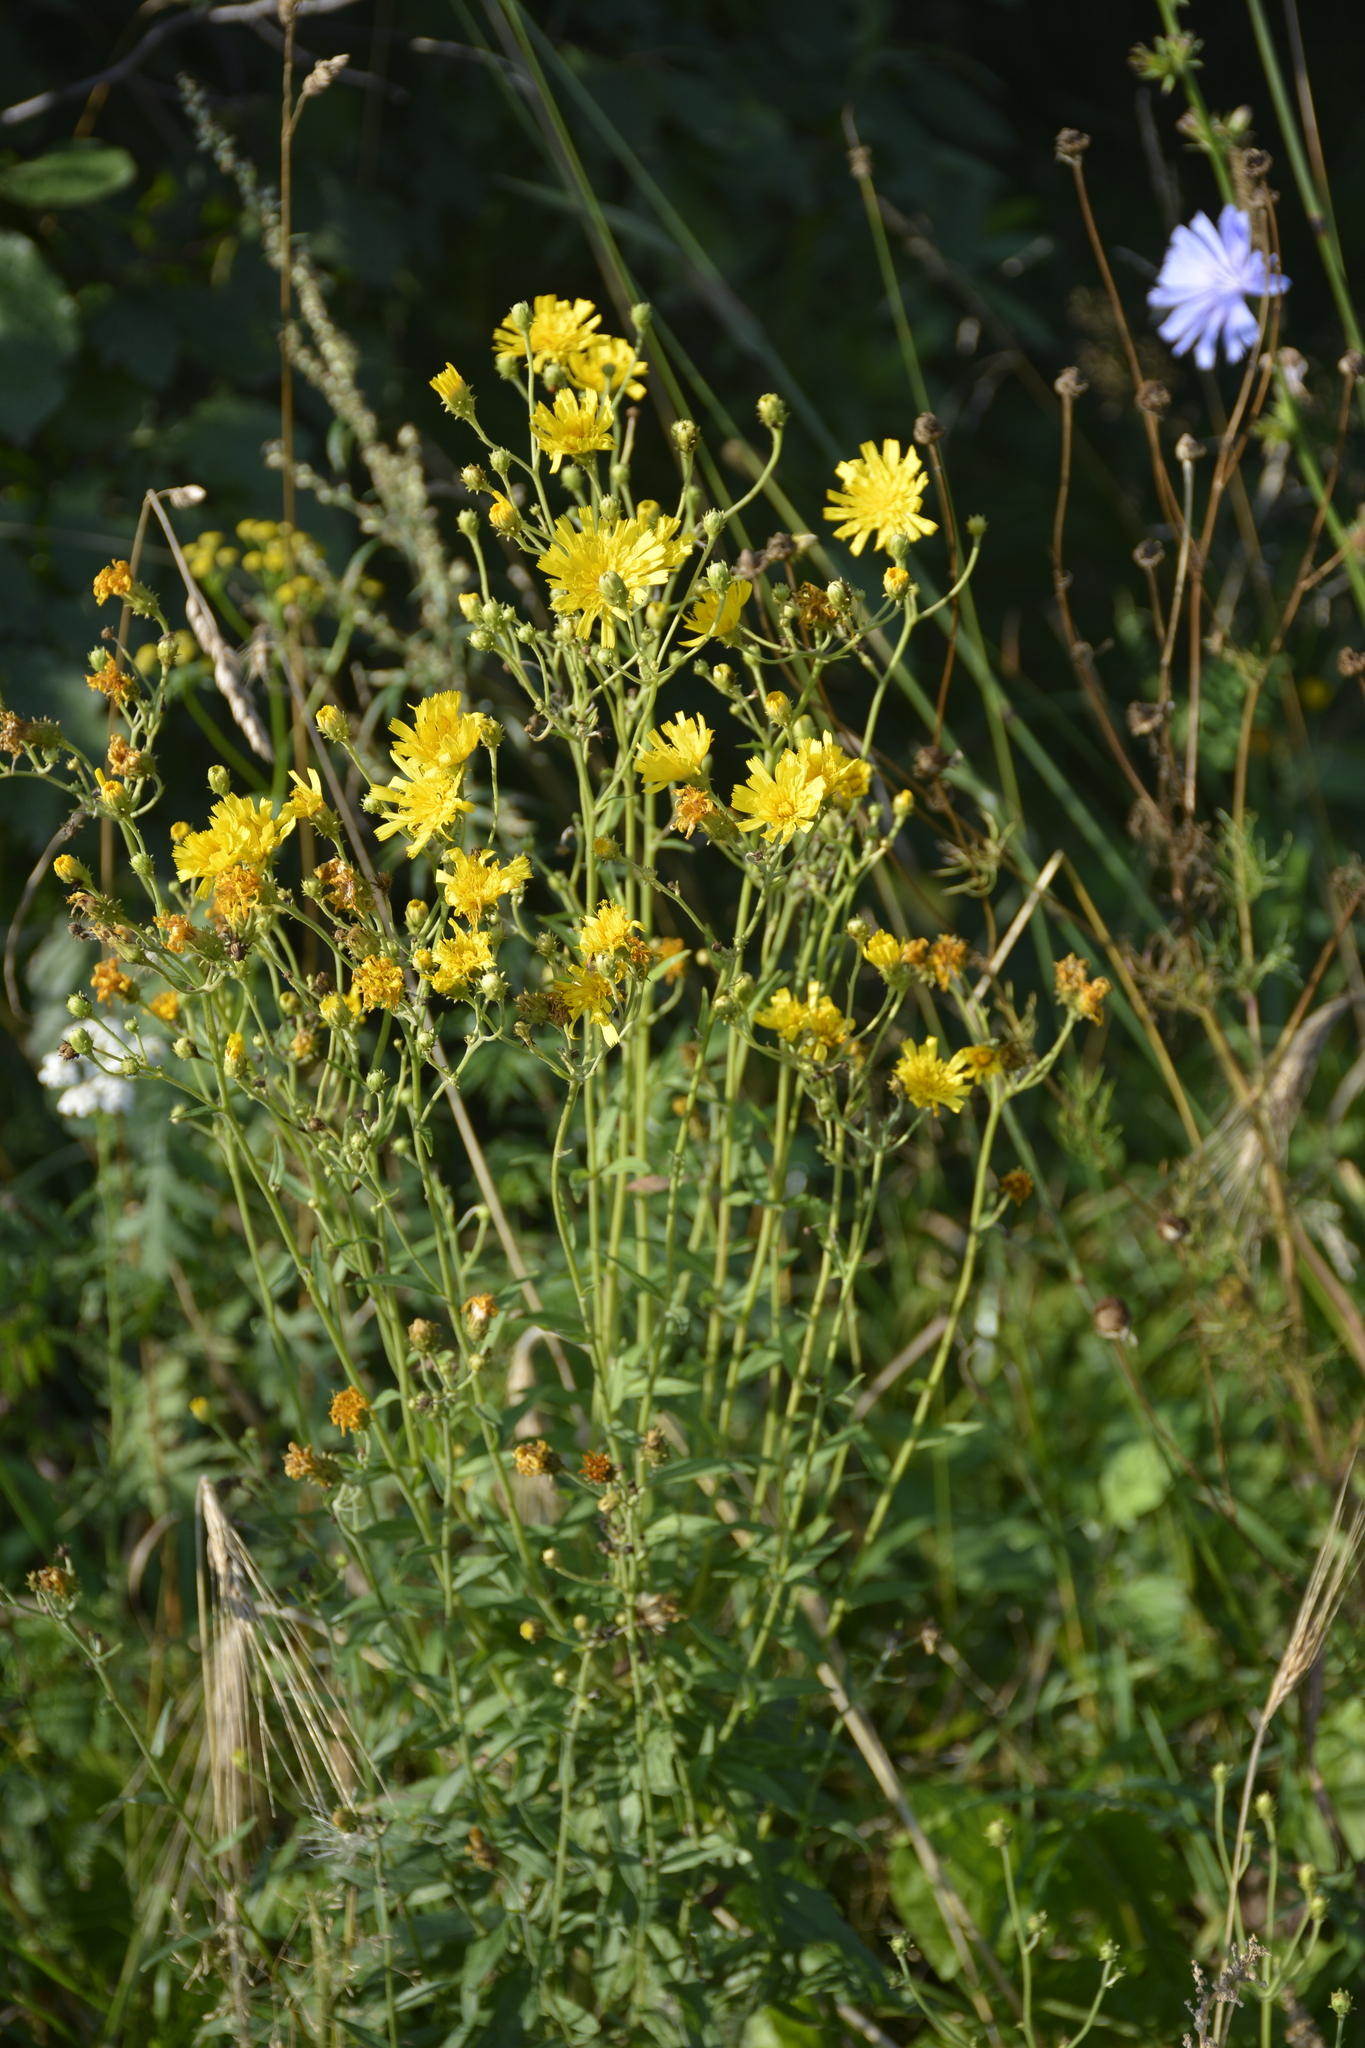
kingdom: Plantae
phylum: Tracheophyta
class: Magnoliopsida
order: Asterales
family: Asteraceae
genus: Hieracium
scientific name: Hieracium umbellatum
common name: Northern hawkweed
